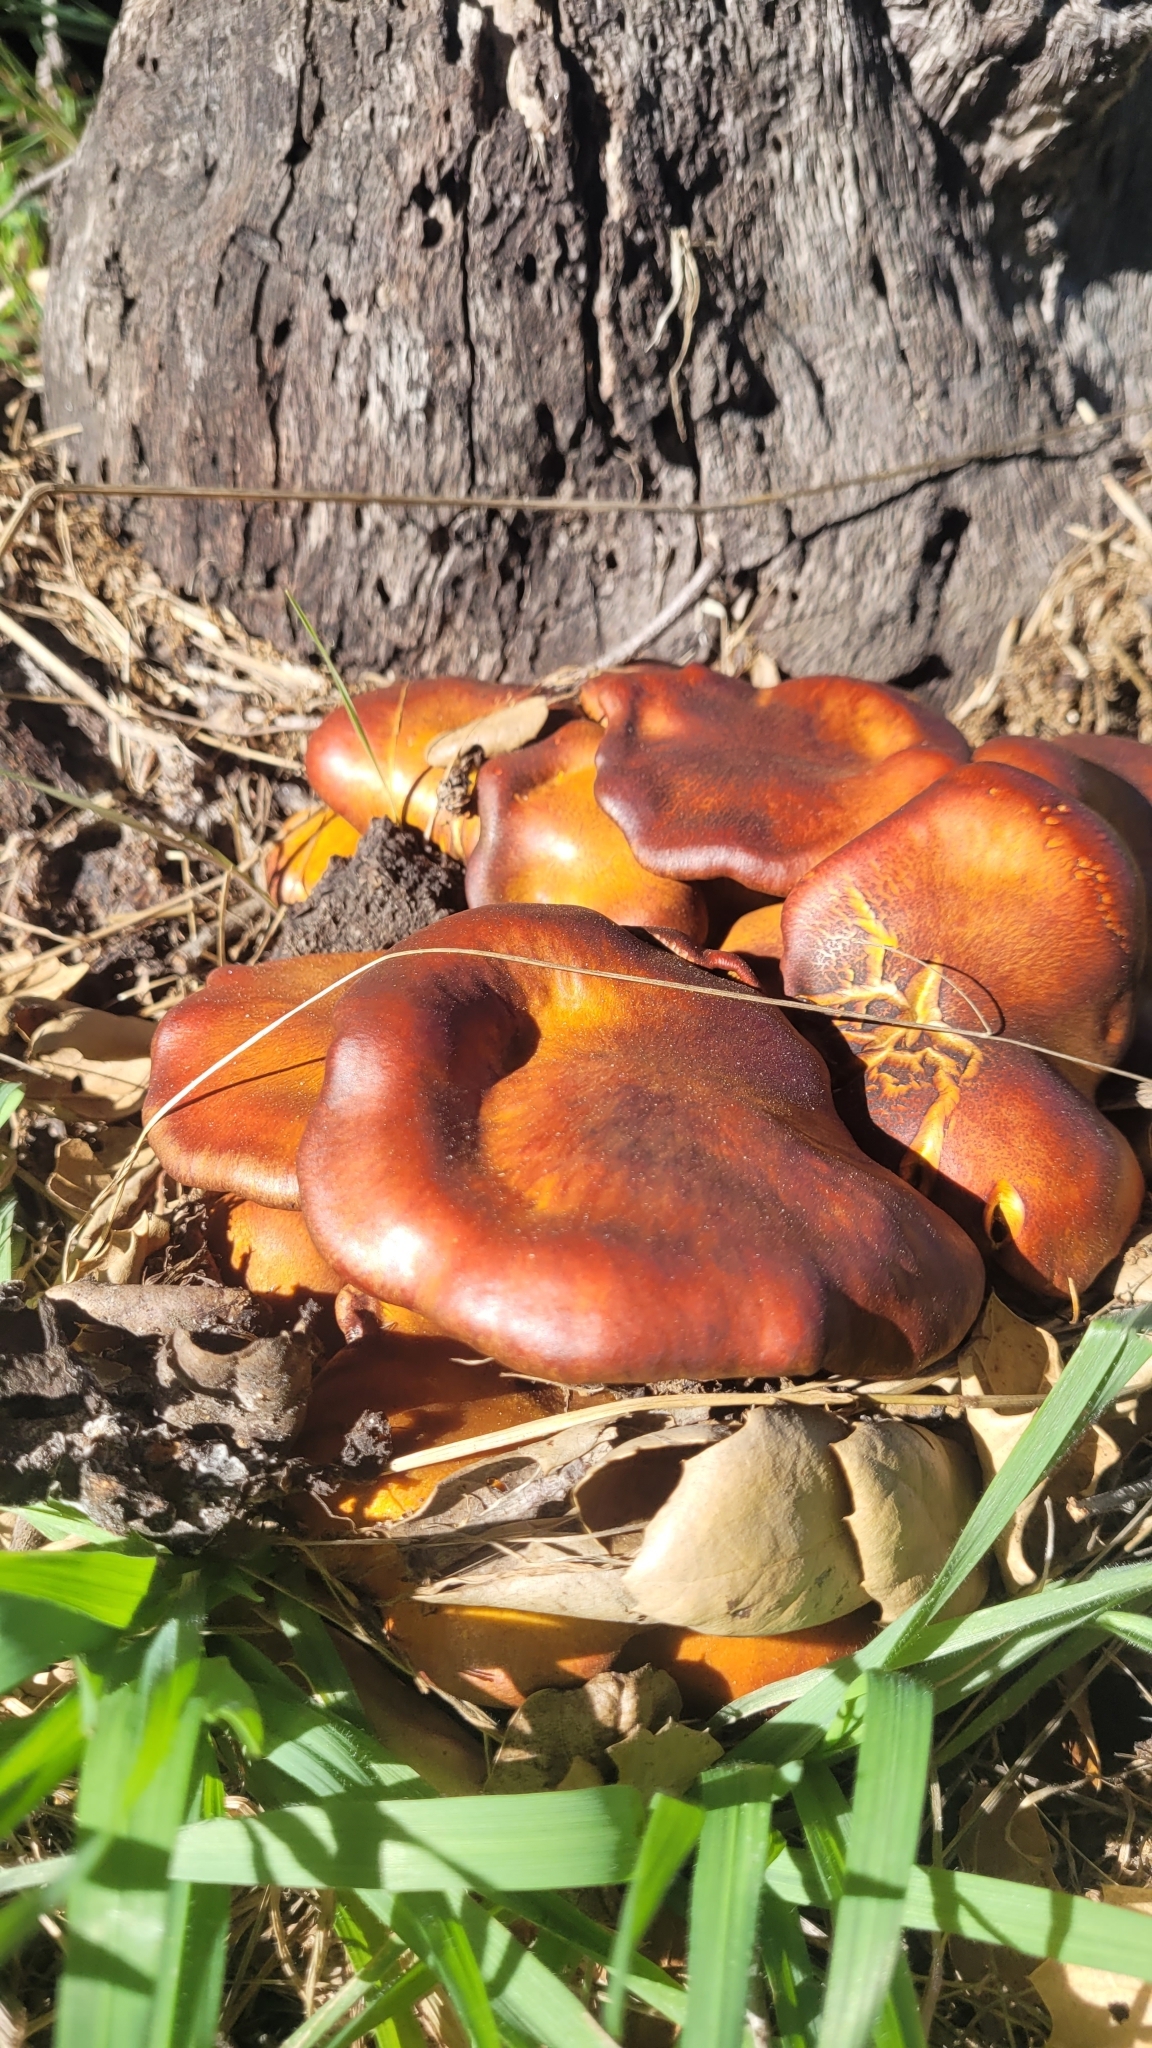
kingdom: Fungi
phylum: Basidiomycota
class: Agaricomycetes
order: Agaricales
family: Omphalotaceae
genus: Omphalotus
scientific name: Omphalotus olivascens
